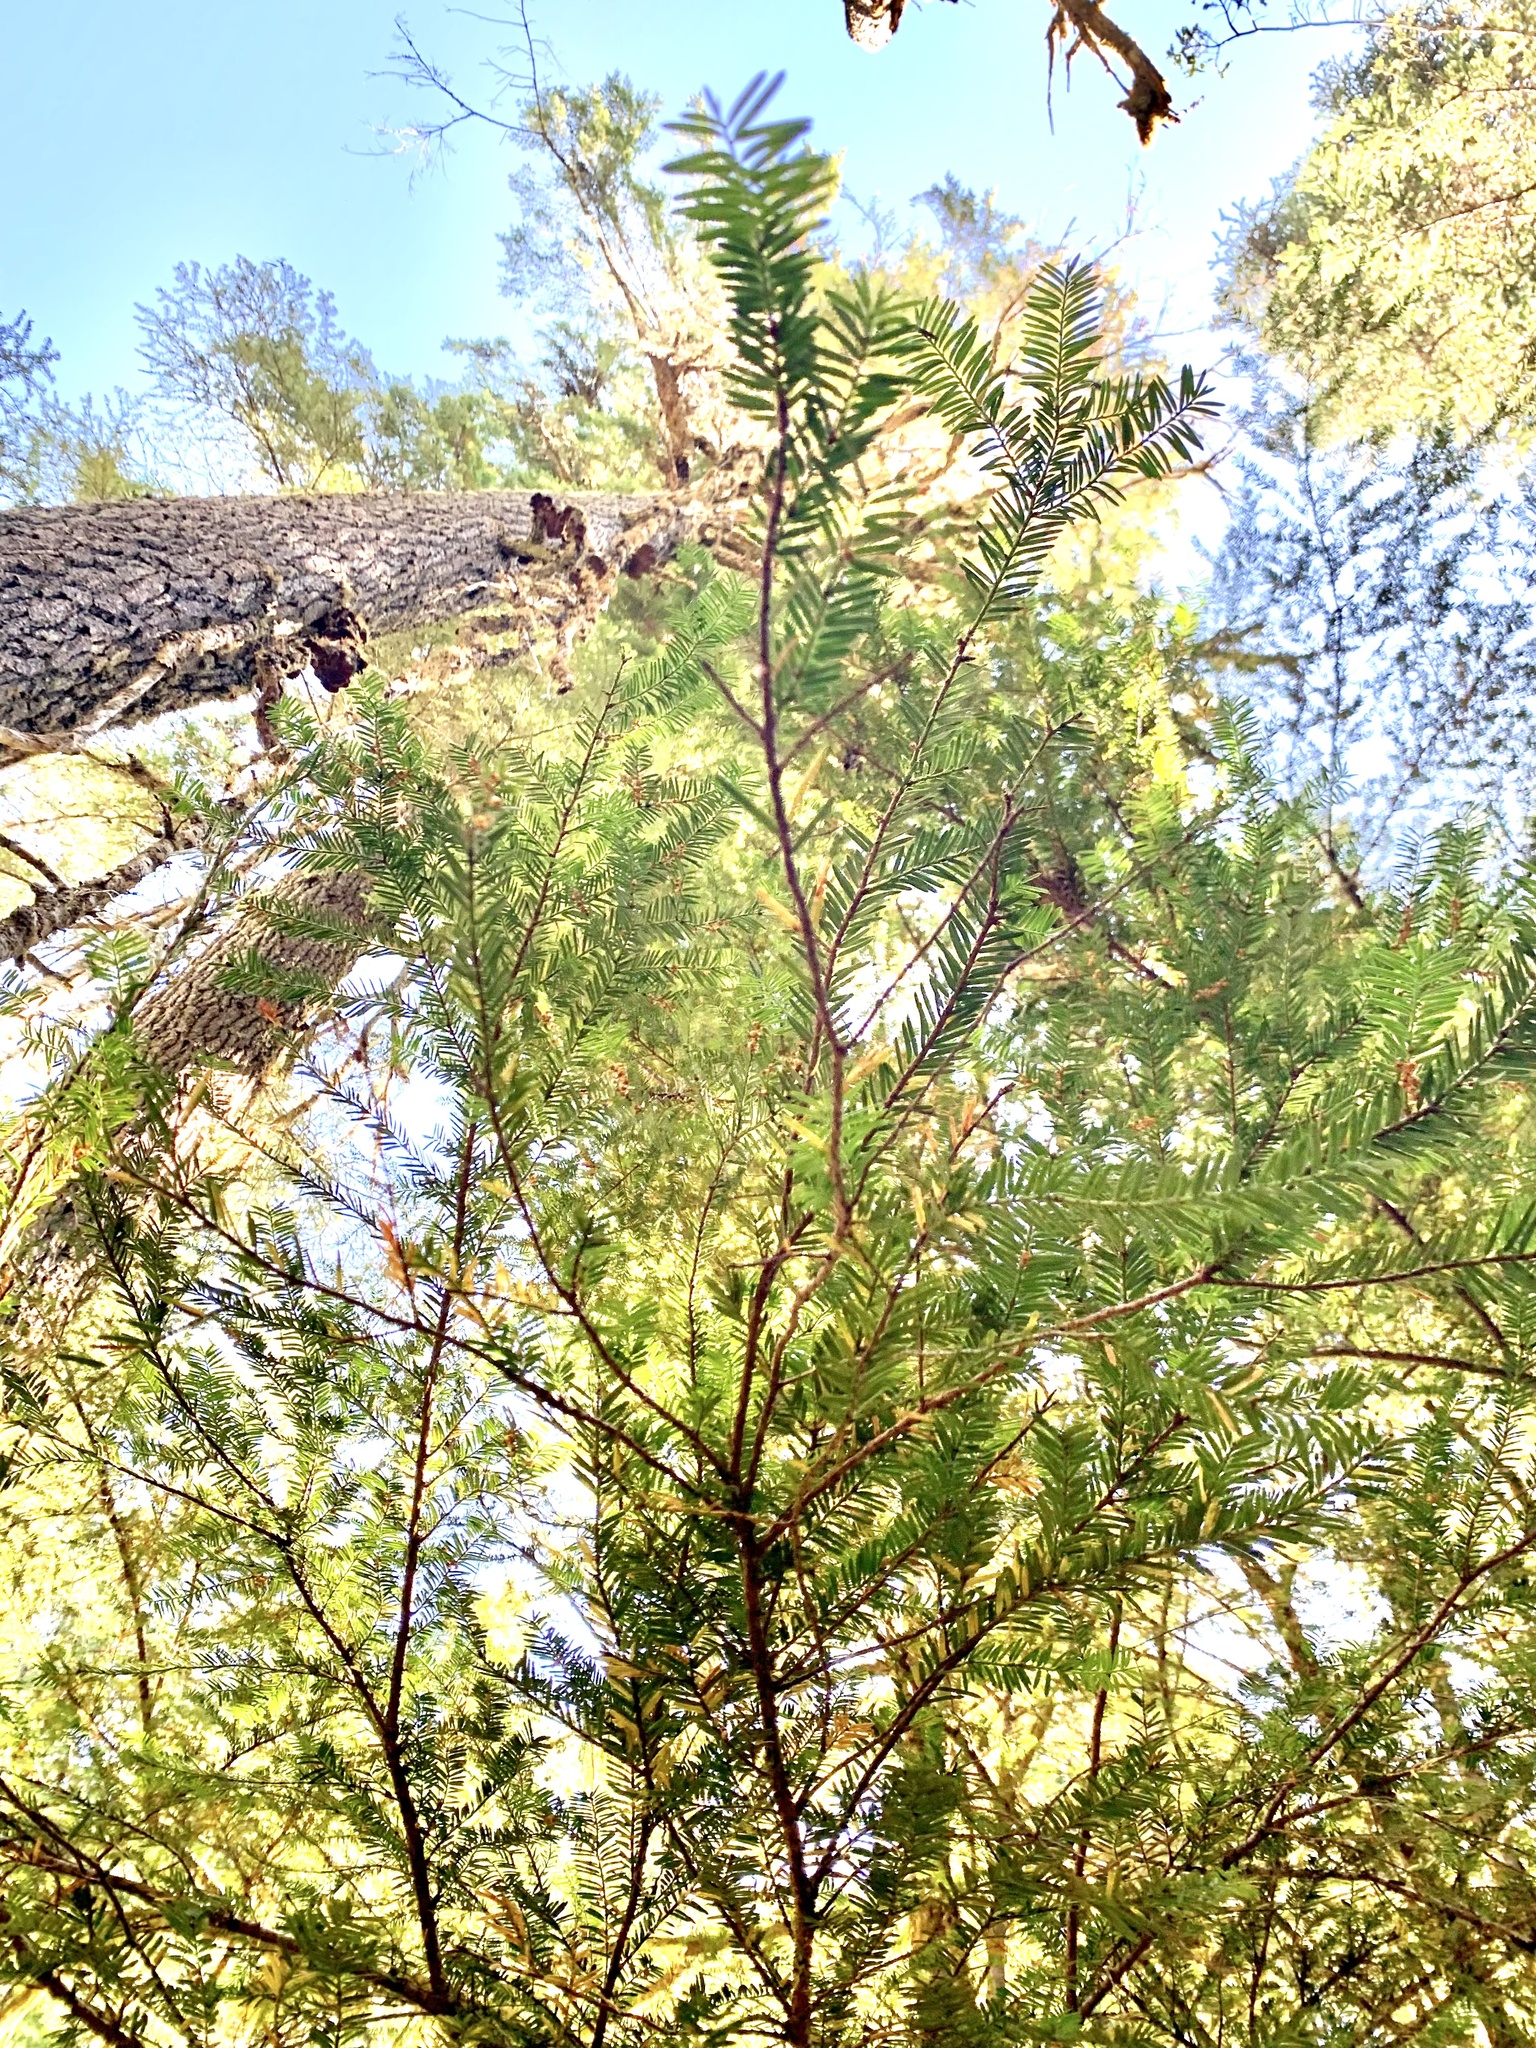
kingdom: Plantae
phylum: Tracheophyta
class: Pinopsida
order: Pinales
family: Taxaceae
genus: Taxus
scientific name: Taxus brevifolia
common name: Pacific yew
